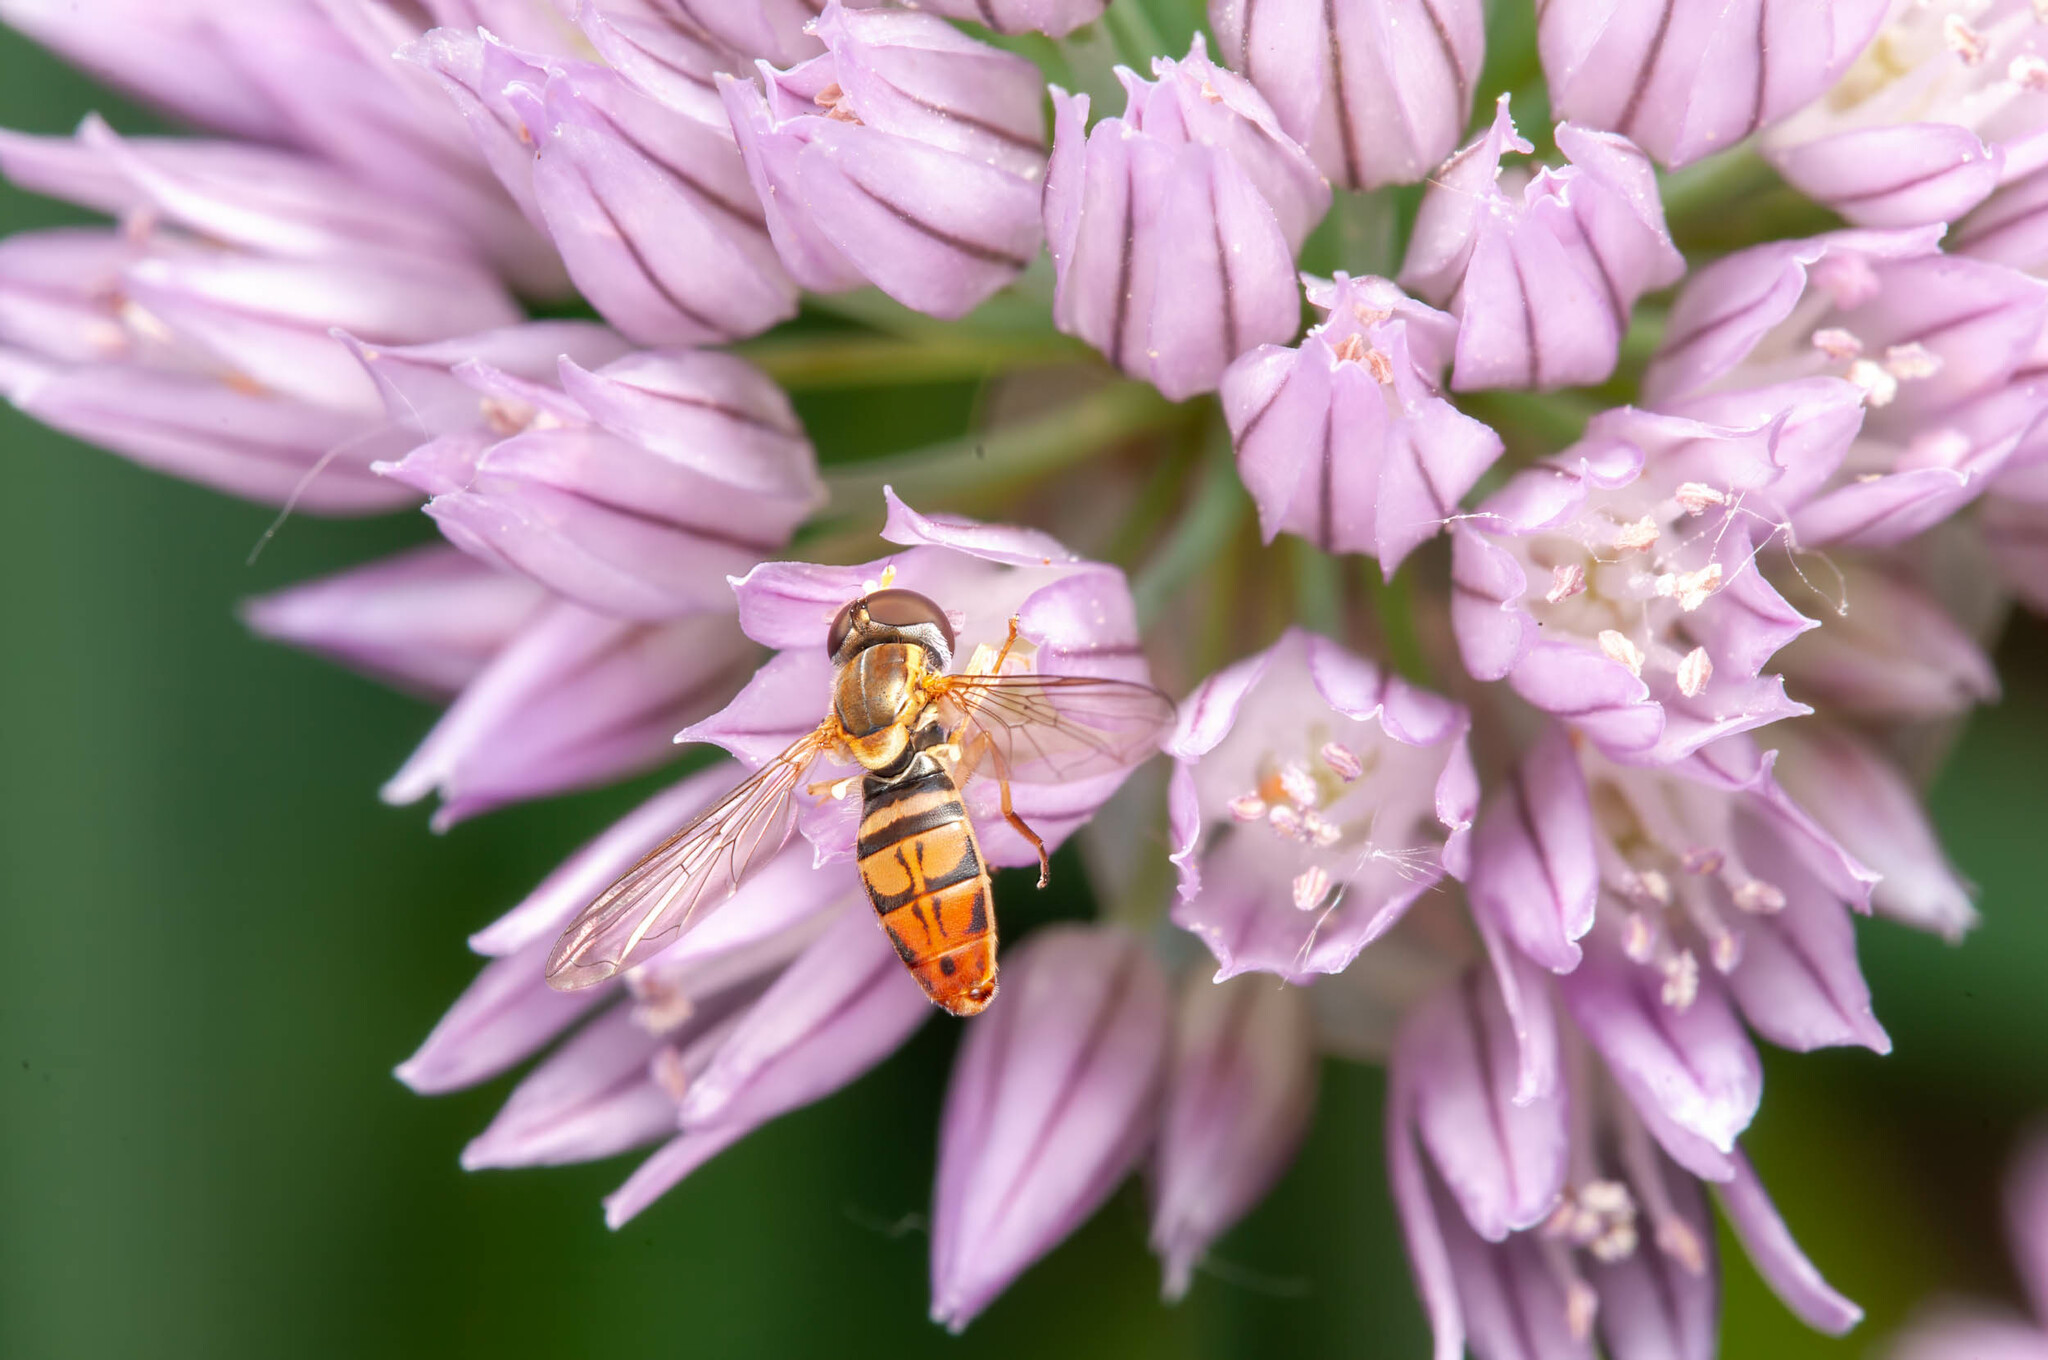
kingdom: Animalia
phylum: Arthropoda
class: Insecta
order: Diptera
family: Syrphidae
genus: Toxomerus
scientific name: Toxomerus marginatus
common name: Syrphid fly
